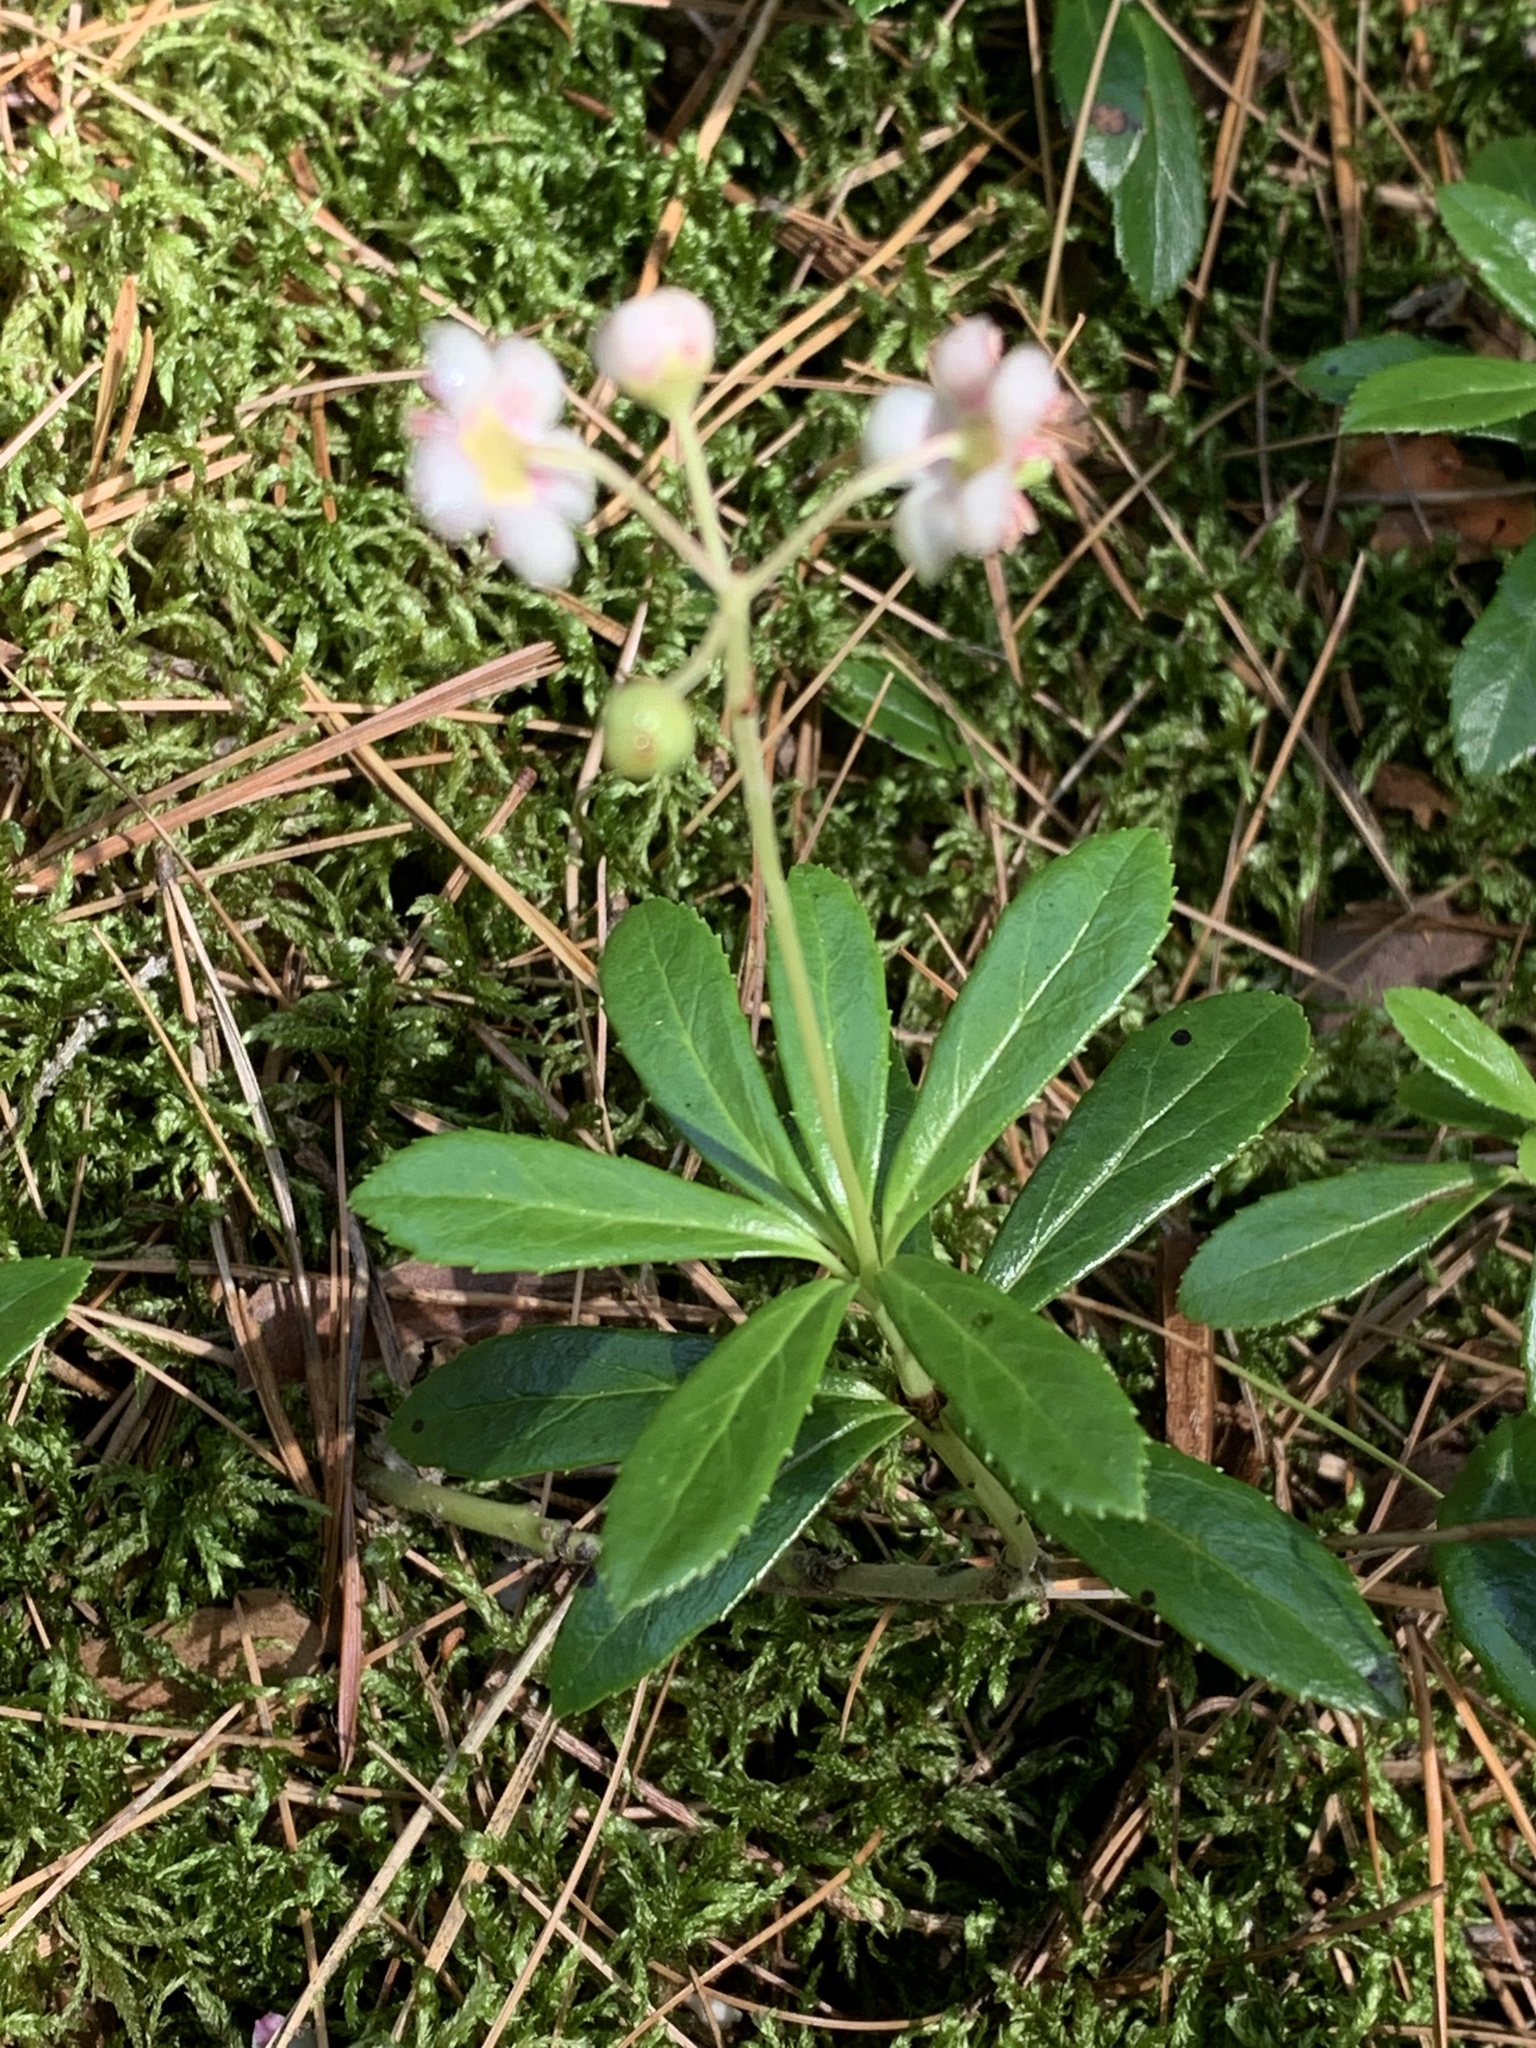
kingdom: Plantae
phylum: Tracheophyta
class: Magnoliopsida
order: Ericales
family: Ericaceae
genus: Chimaphila
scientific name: Chimaphila umbellata
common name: Pipsissewa
